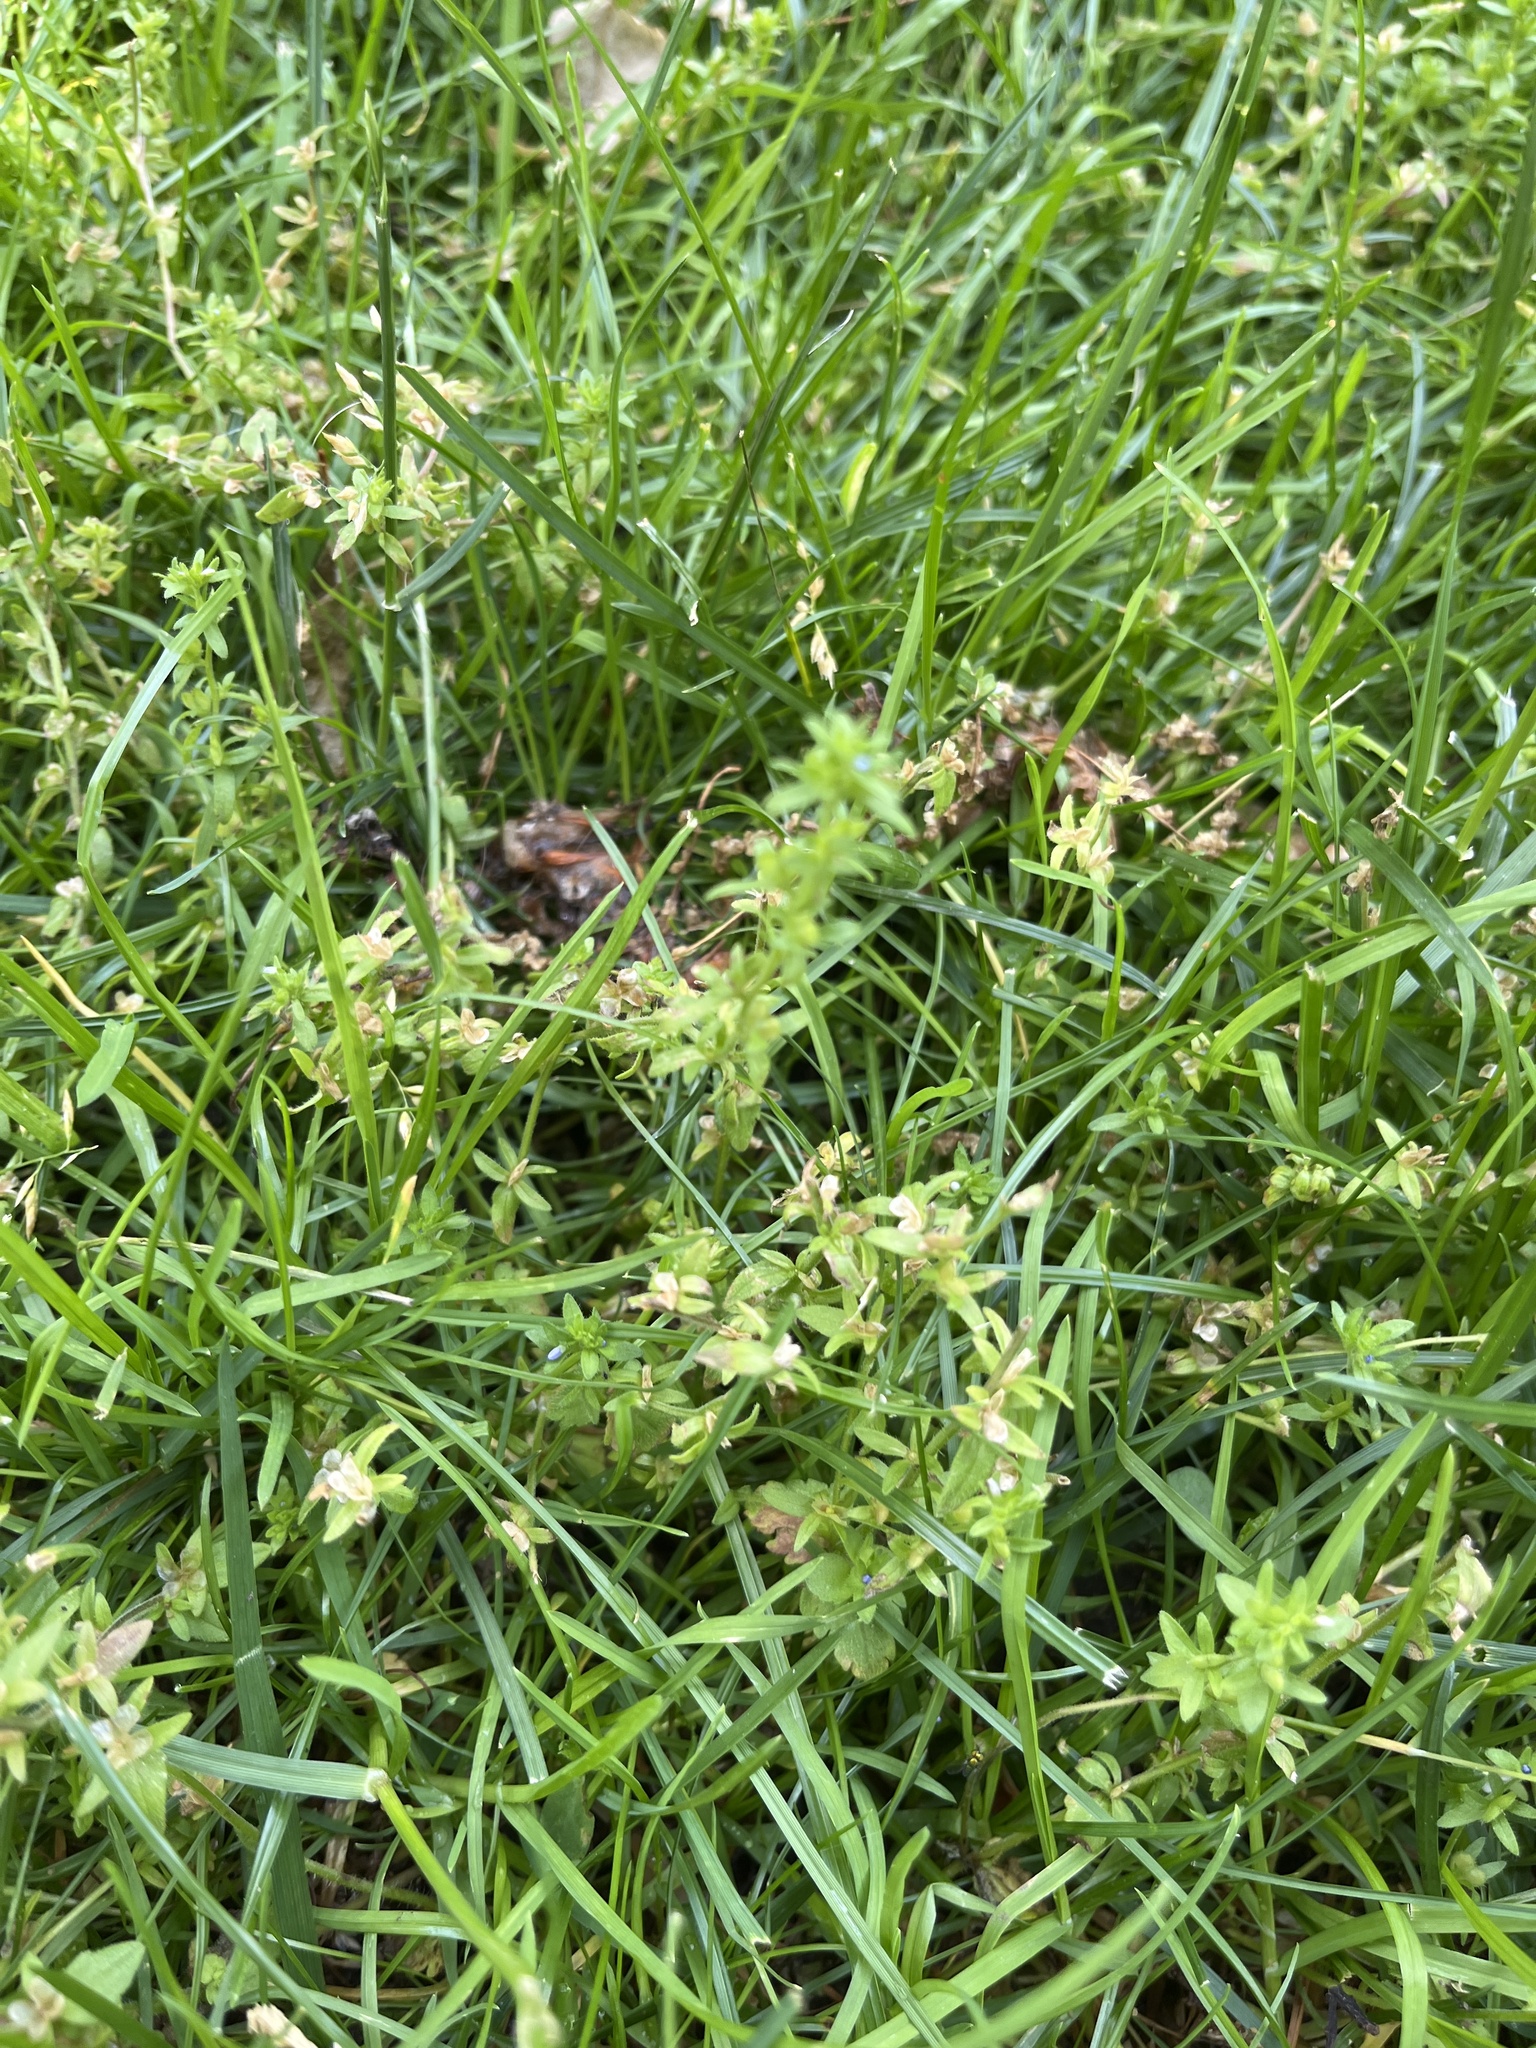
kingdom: Plantae
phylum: Tracheophyta
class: Magnoliopsida
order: Lamiales
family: Plantaginaceae
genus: Veronica
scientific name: Veronica arvensis
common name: Corn speedwell
